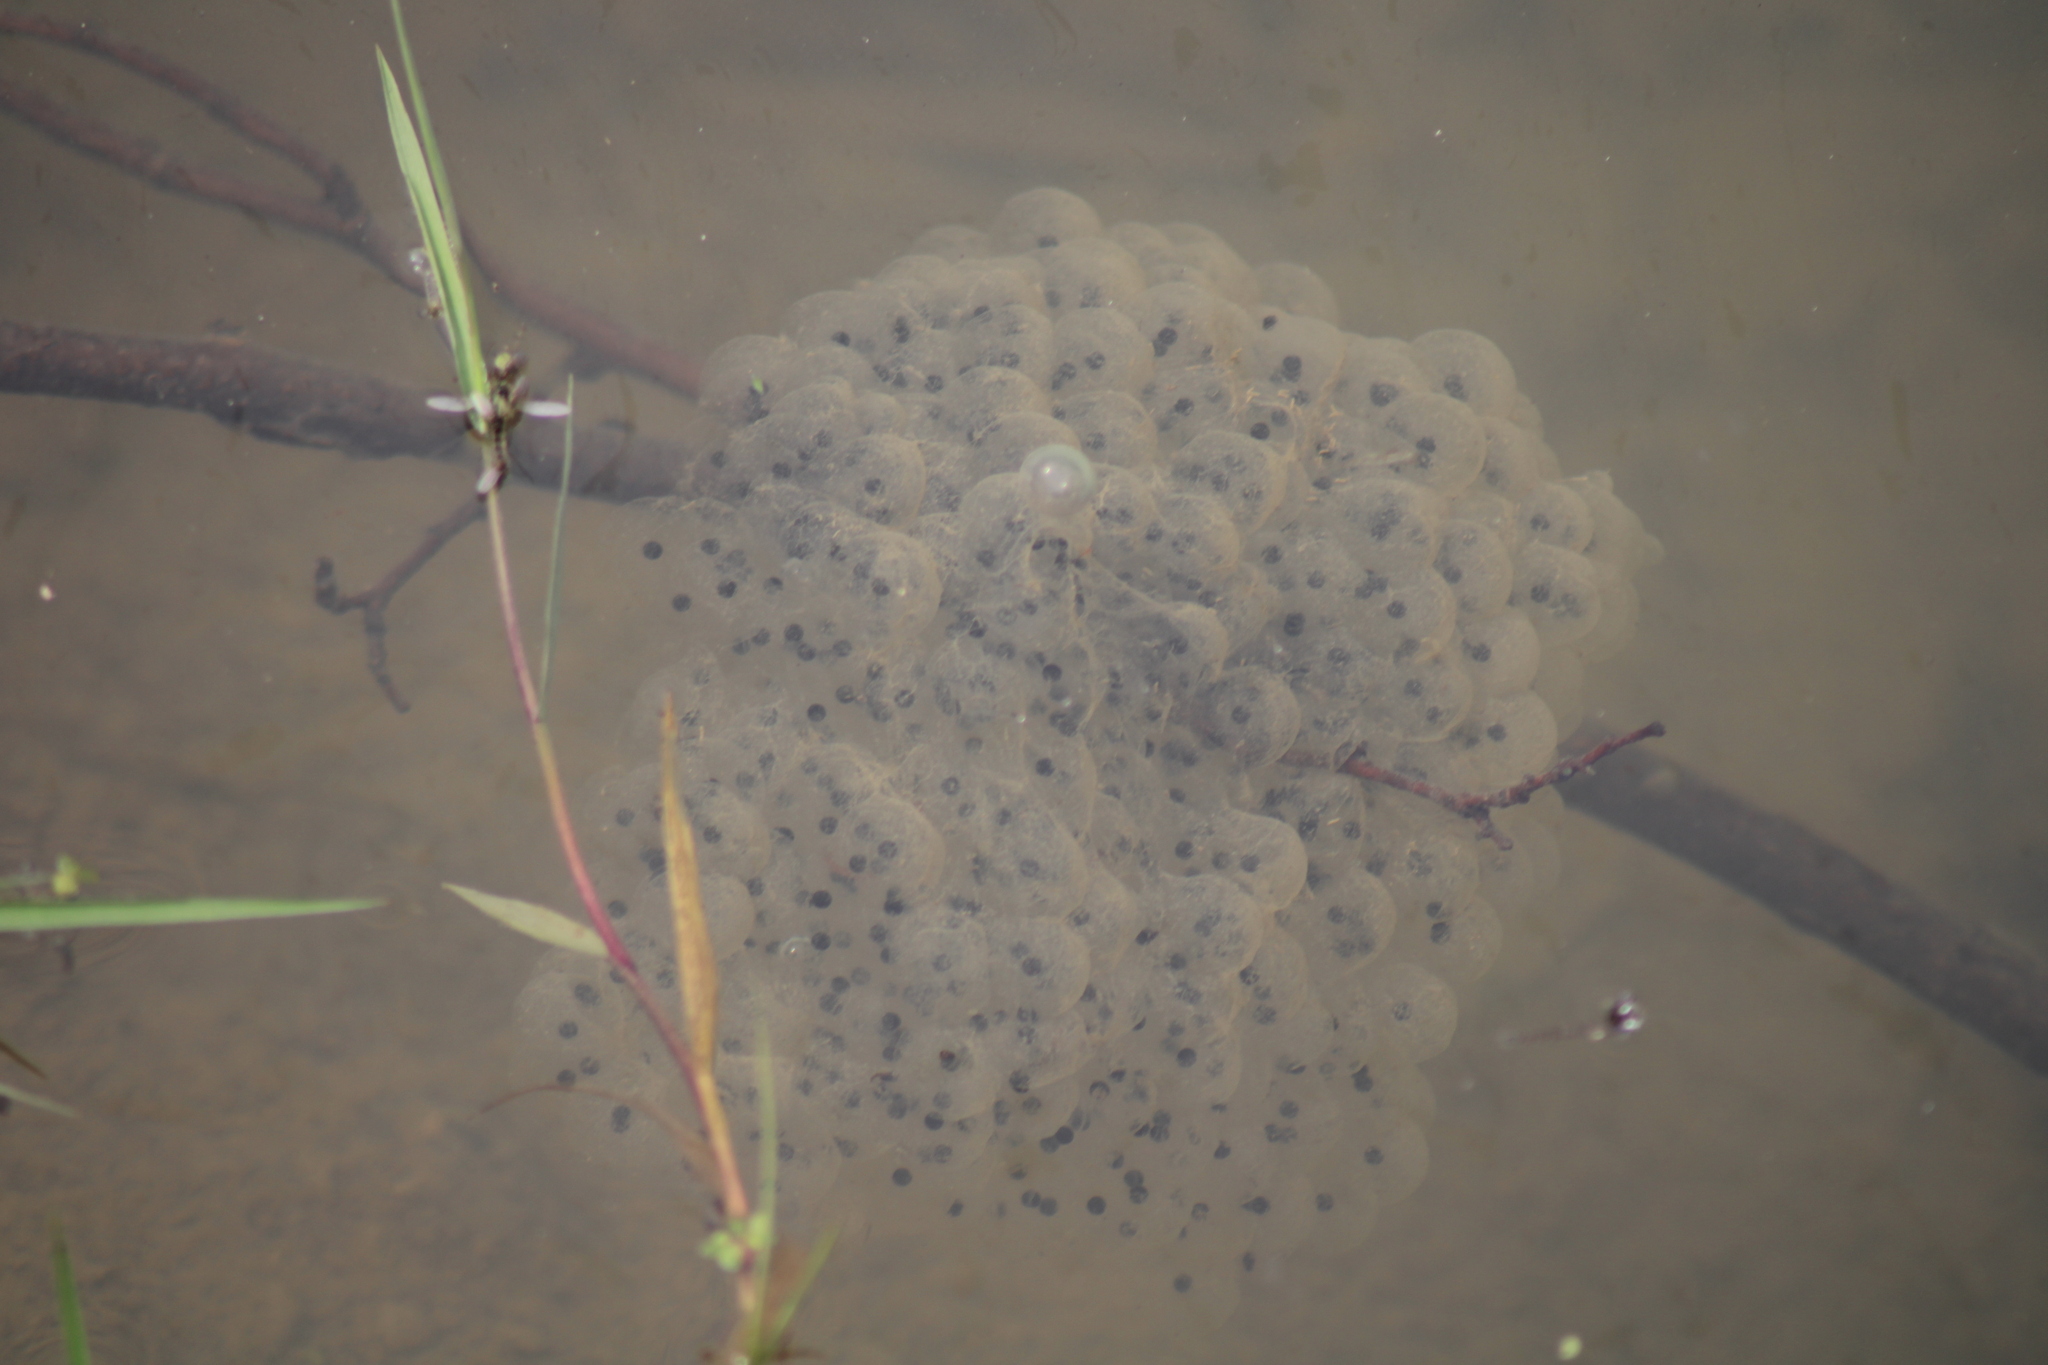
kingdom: Animalia
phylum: Chordata
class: Amphibia
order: Anura
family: Ranidae
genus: Rana
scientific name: Rana dalmatina
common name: Agile frog
